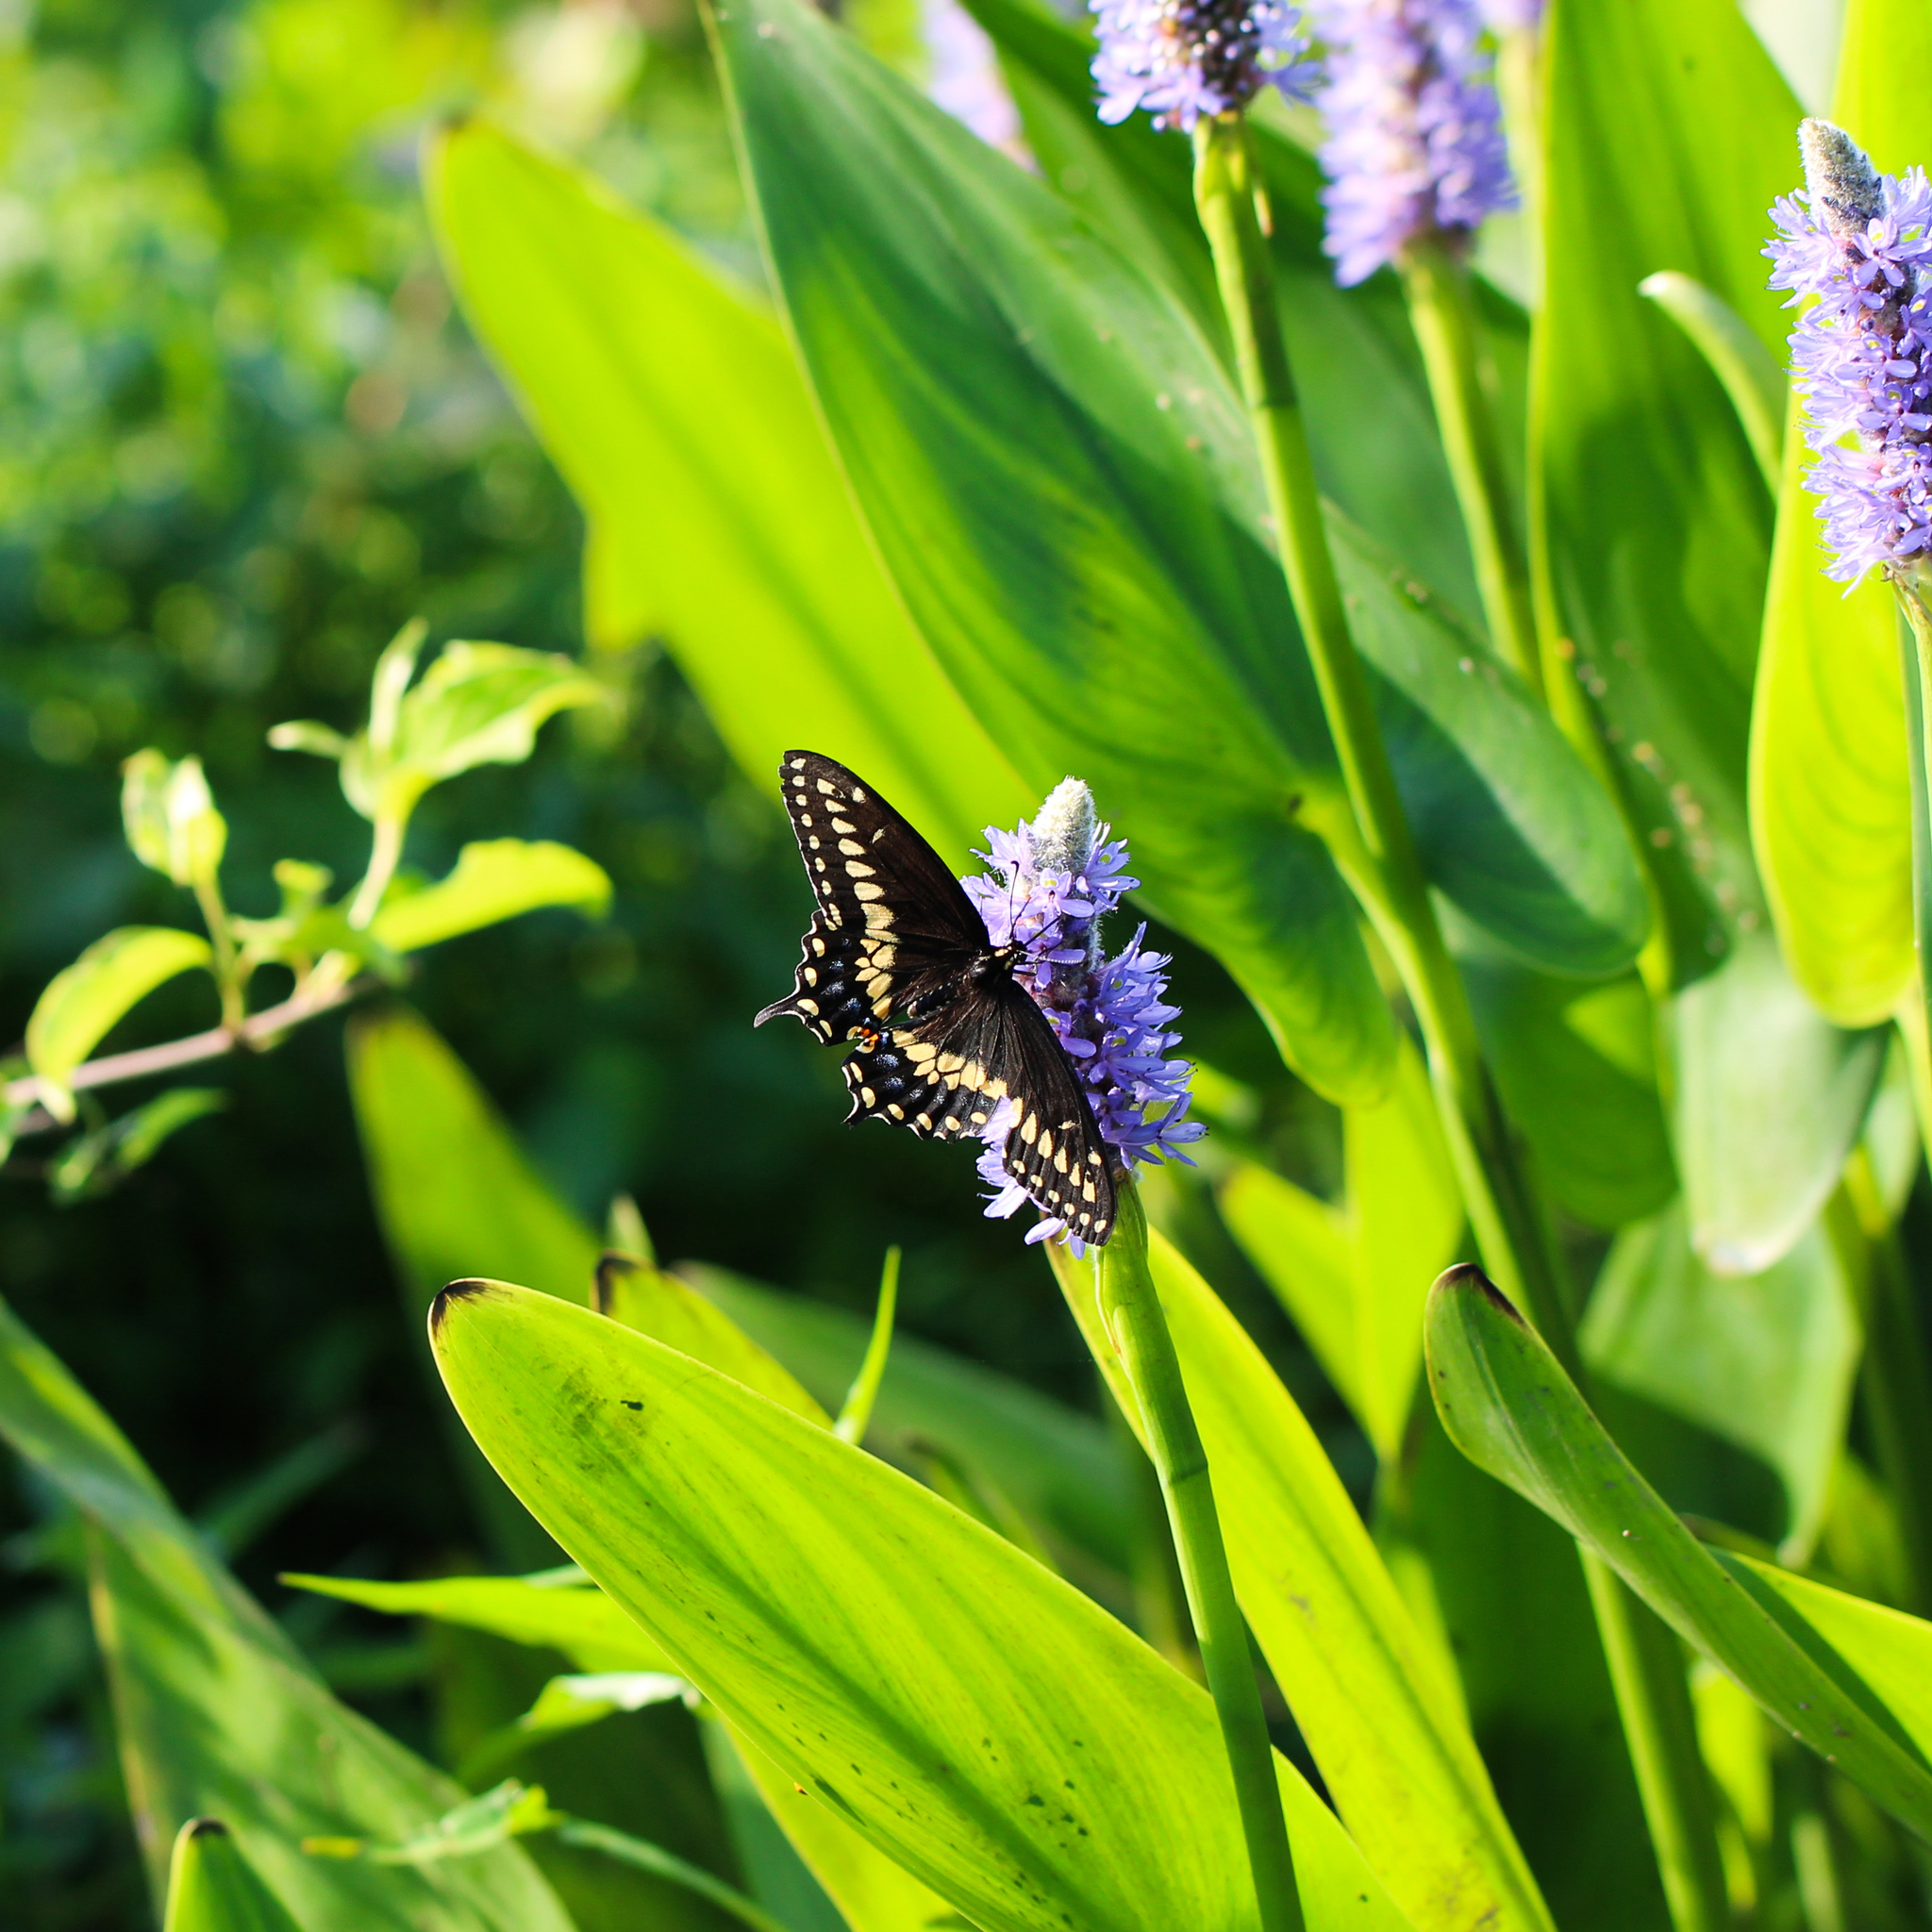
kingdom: Animalia
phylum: Arthropoda
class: Insecta
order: Lepidoptera
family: Papilionidae
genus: Papilio
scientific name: Papilio polyxenes
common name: Black swallowtail
